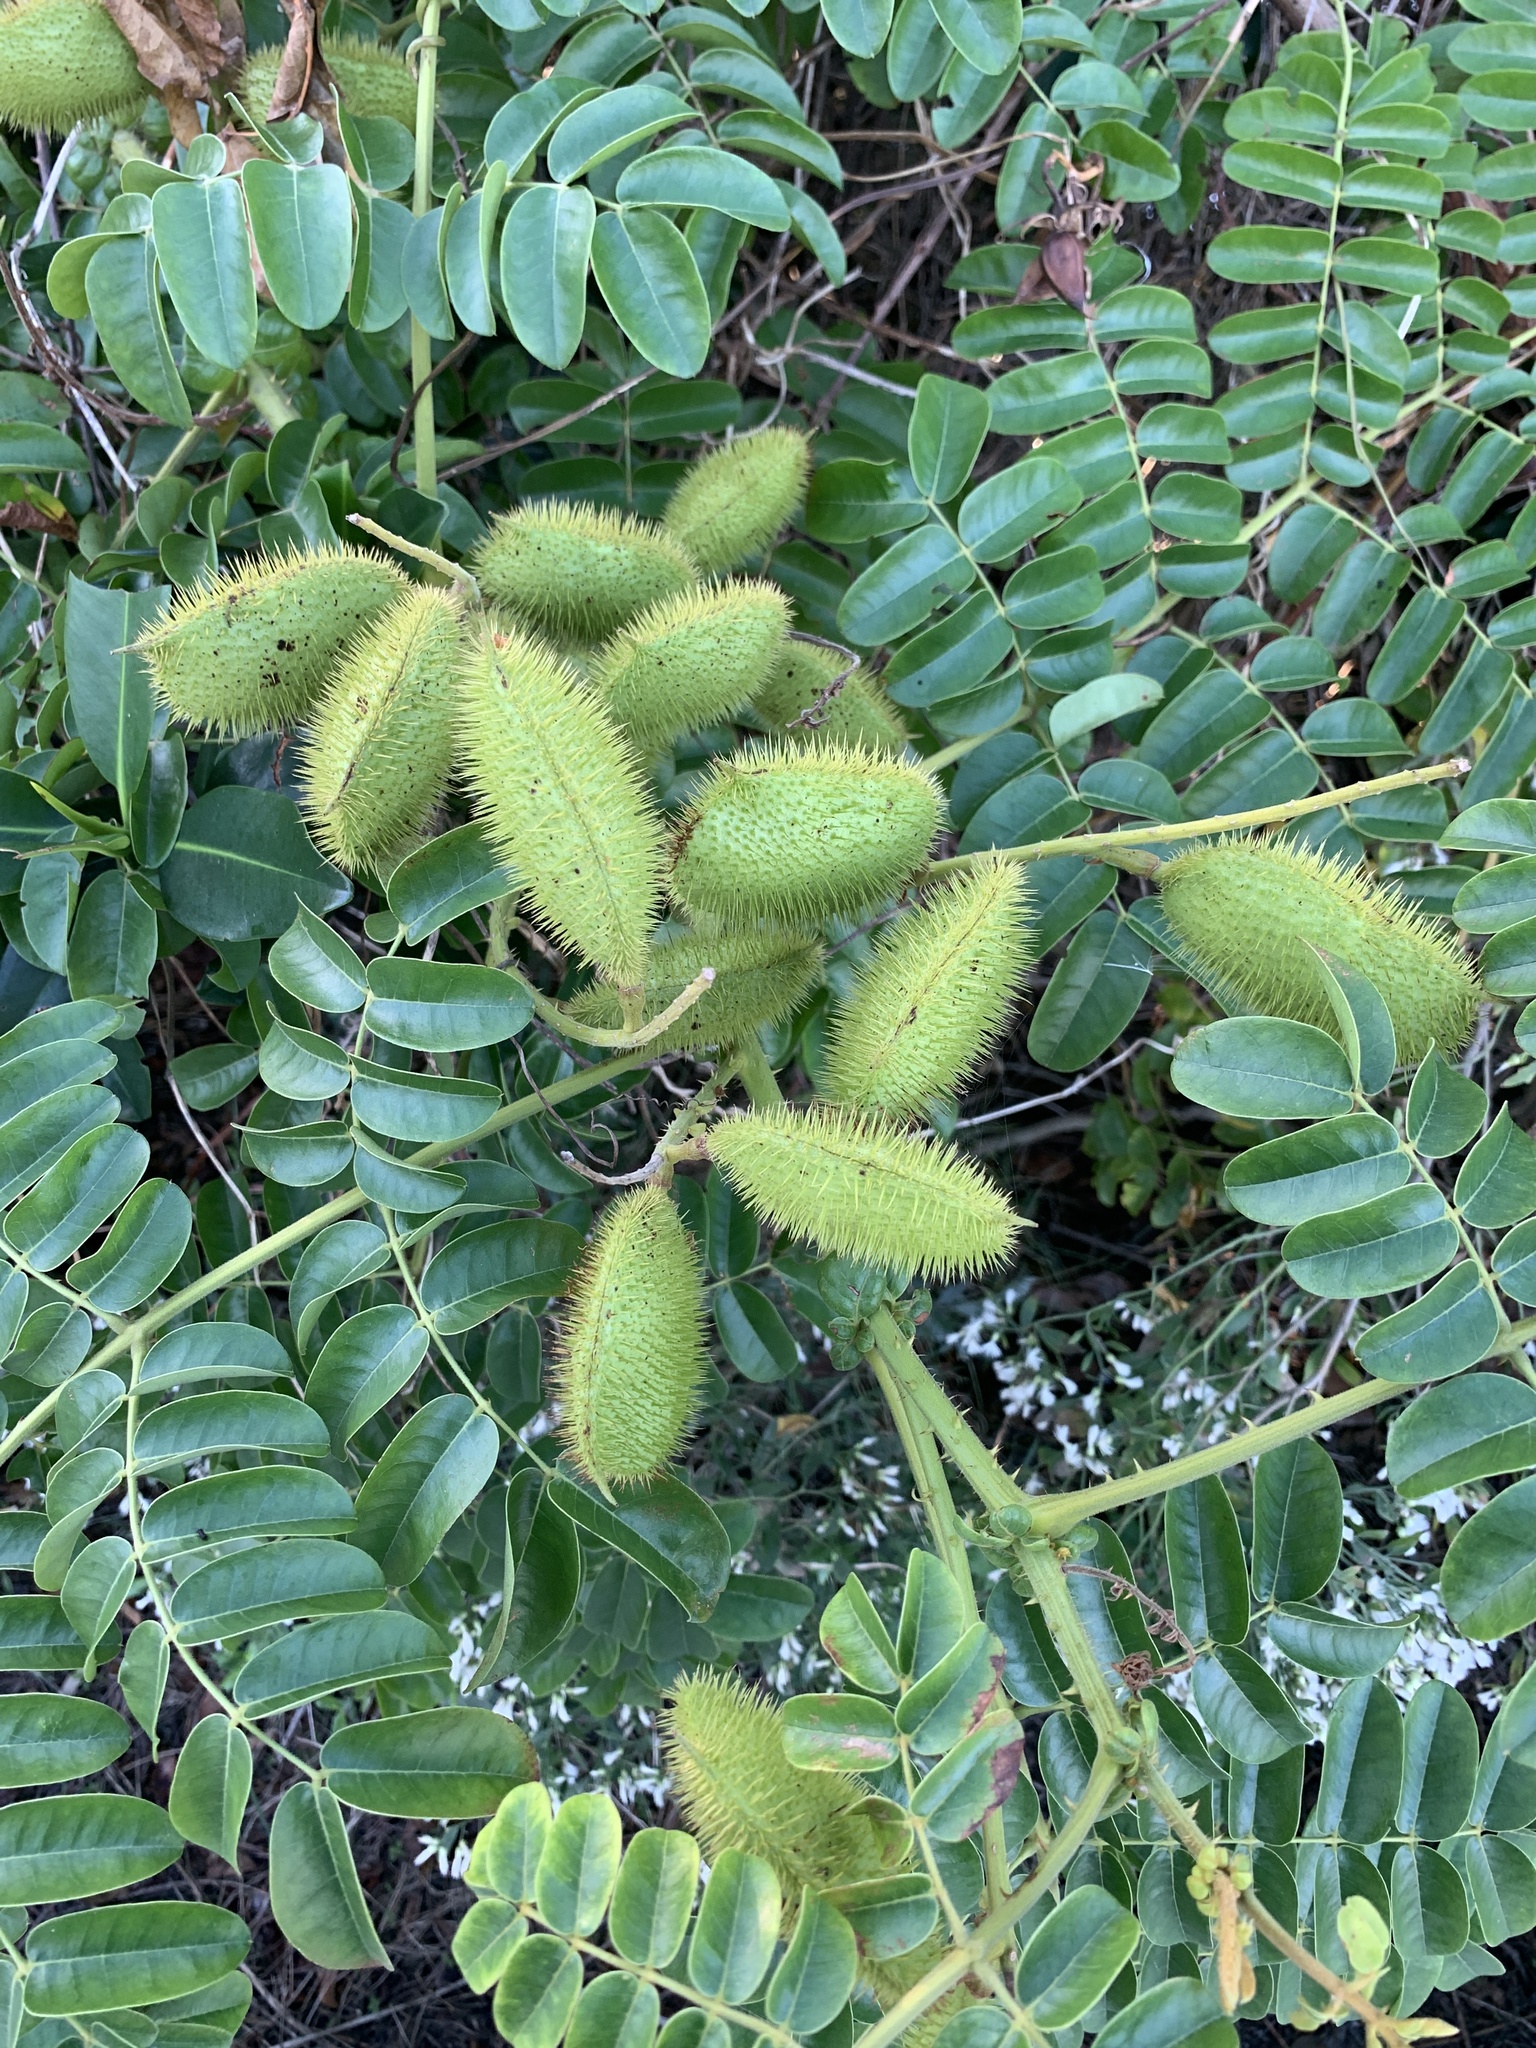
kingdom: Plantae
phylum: Tracheophyta
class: Magnoliopsida
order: Fabales
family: Fabaceae
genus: Guilandina
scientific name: Guilandina bonduc
